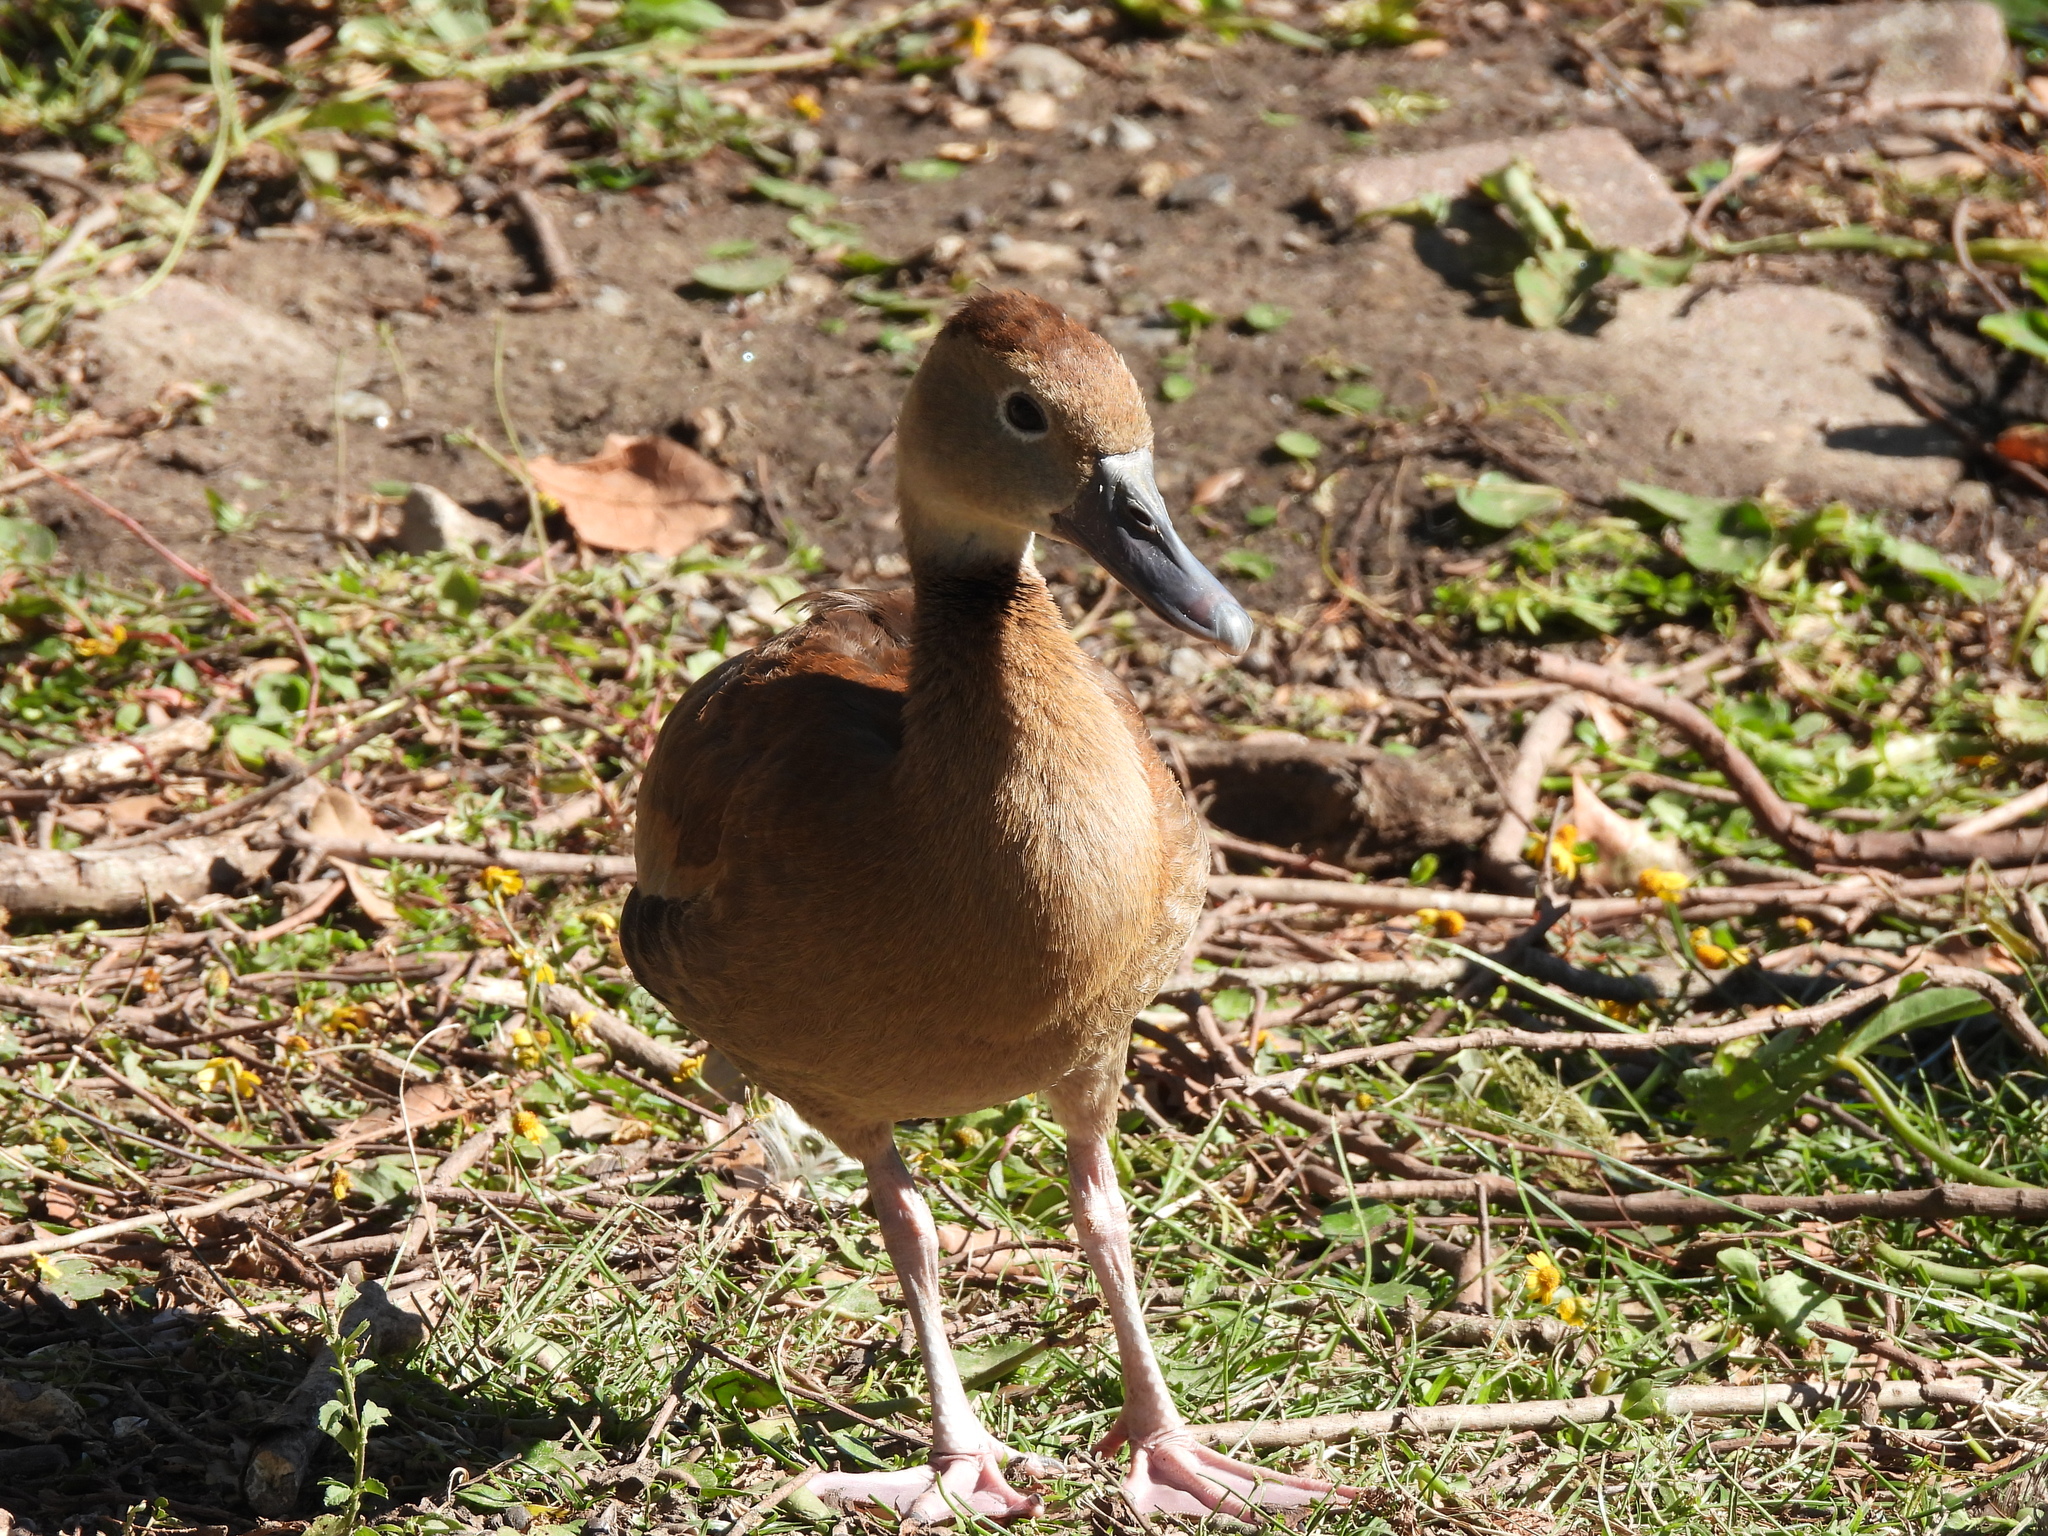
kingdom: Animalia
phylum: Chordata
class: Aves
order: Anseriformes
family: Anatidae
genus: Dendrocygna
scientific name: Dendrocygna autumnalis
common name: Black-bellied whistling duck
